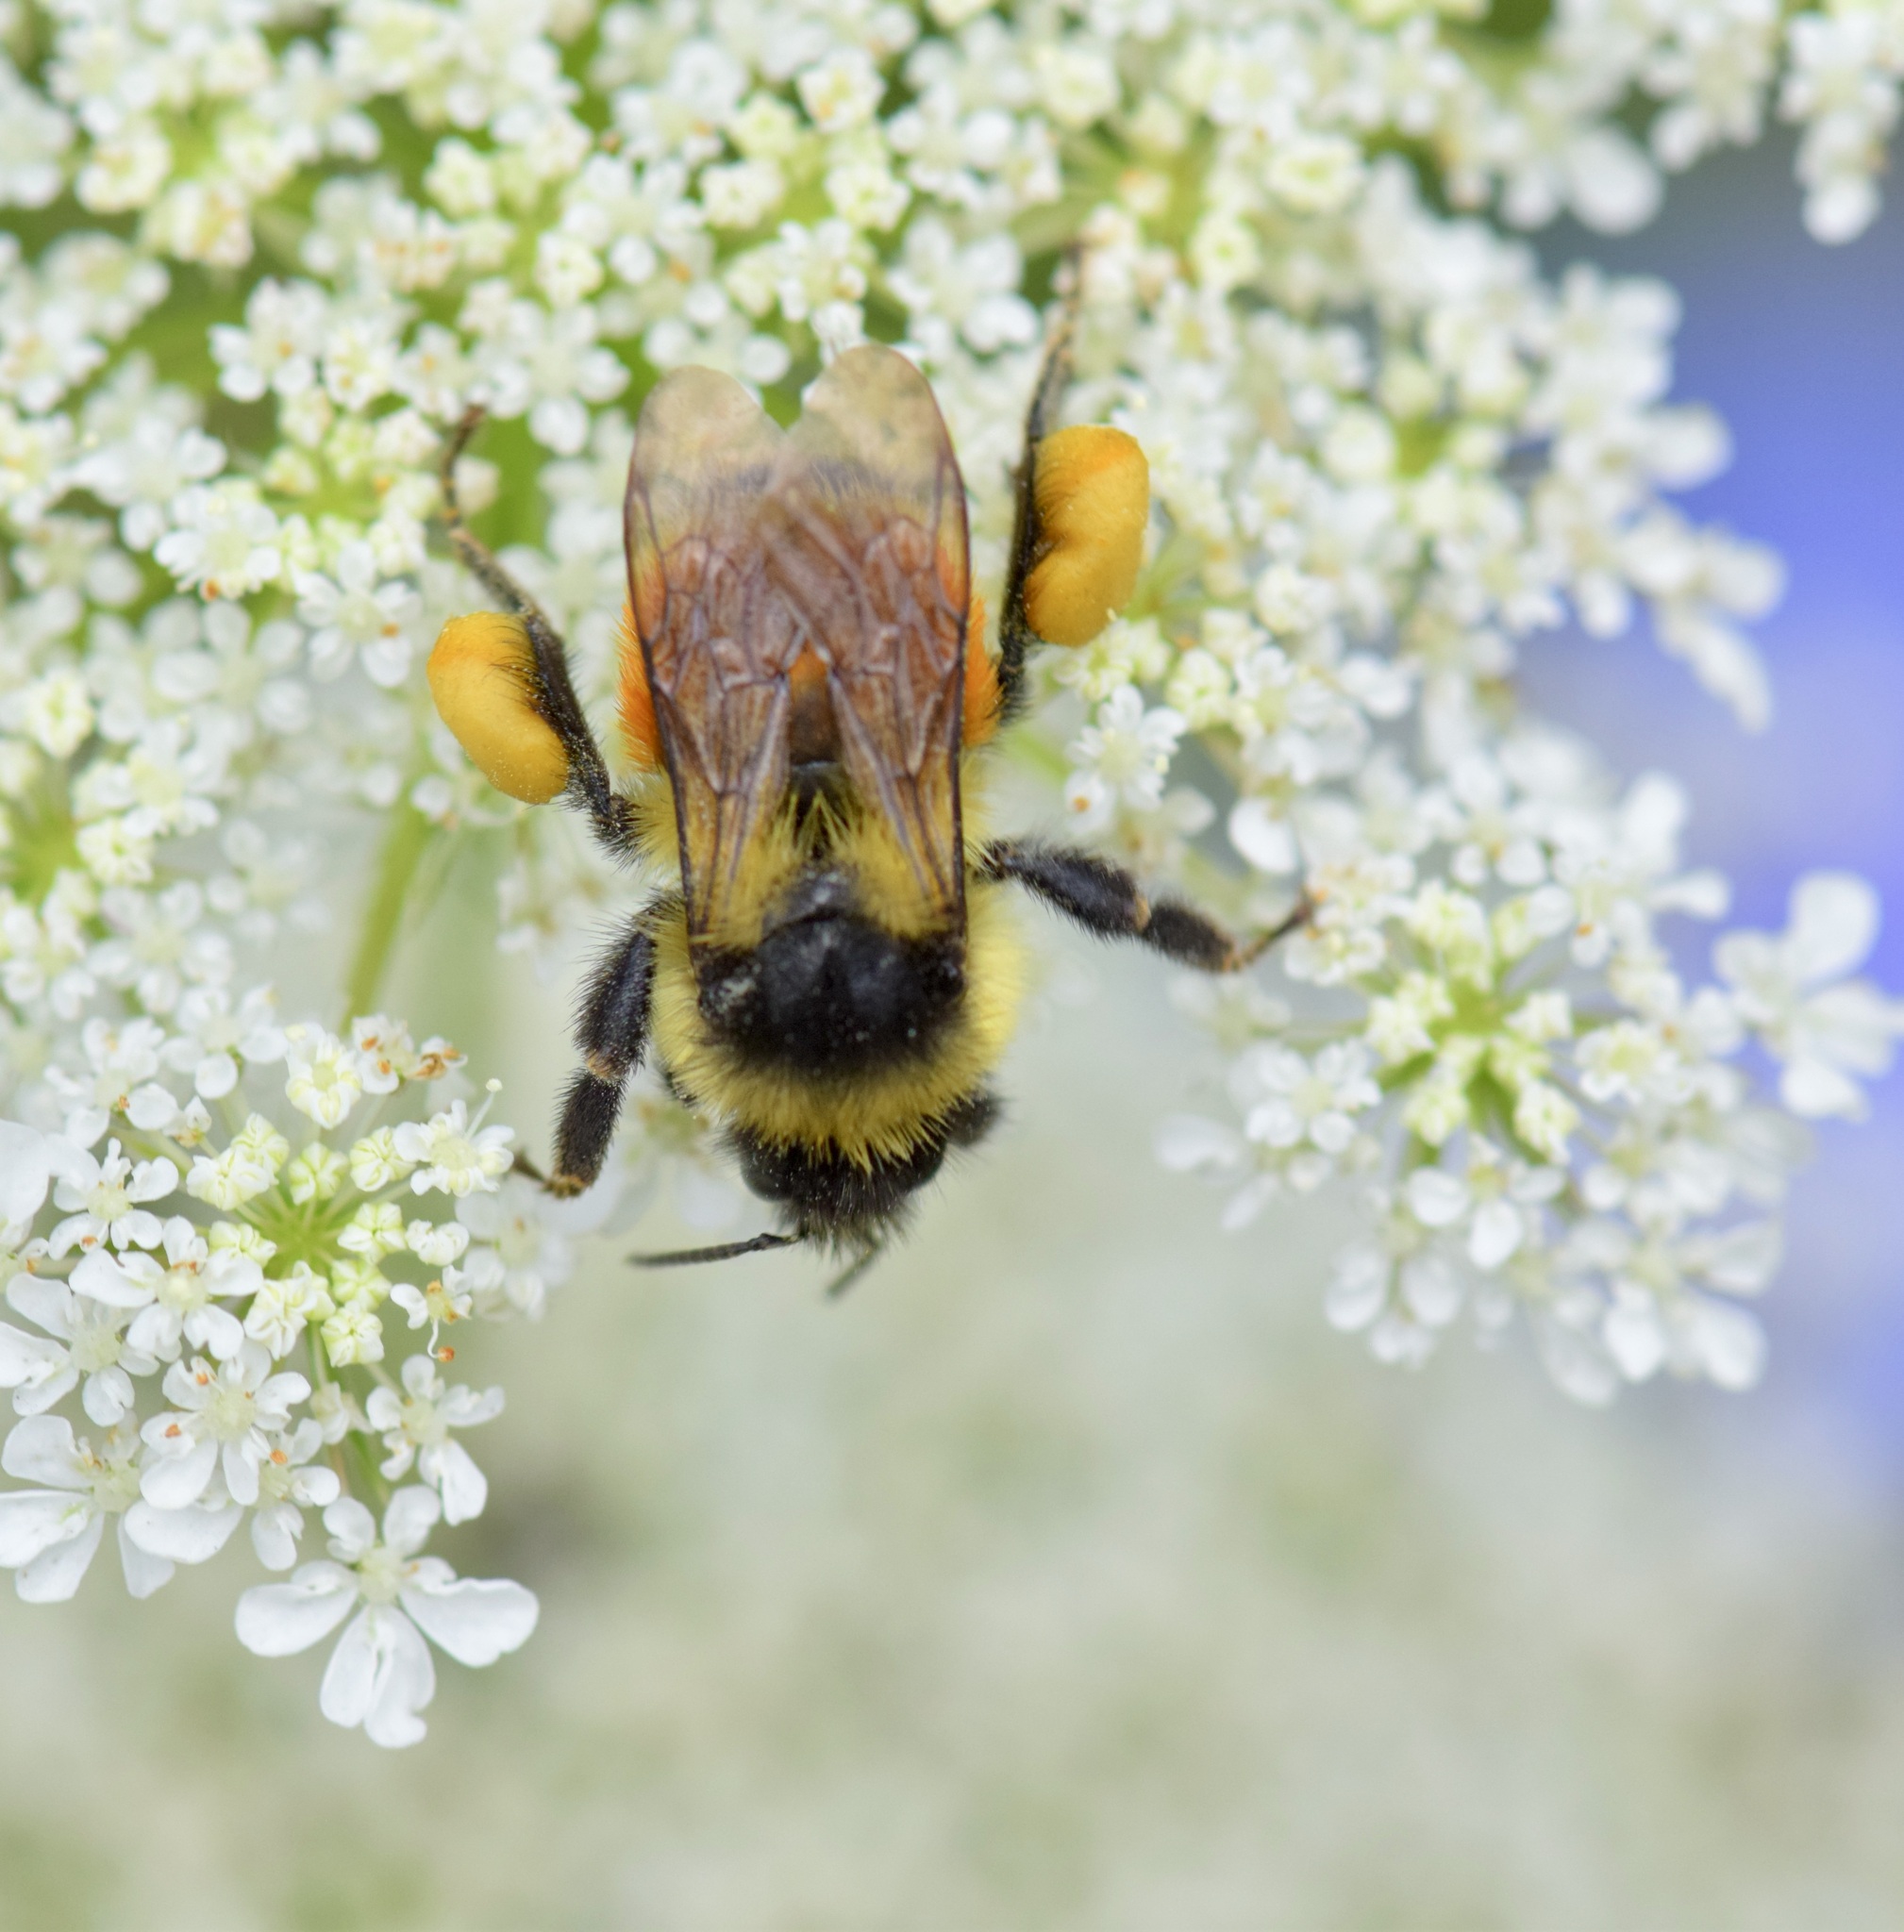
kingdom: Animalia
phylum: Arthropoda
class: Insecta
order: Hymenoptera
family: Apidae
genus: Bombus
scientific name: Bombus ternarius
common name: Tri-colored bumble bee
